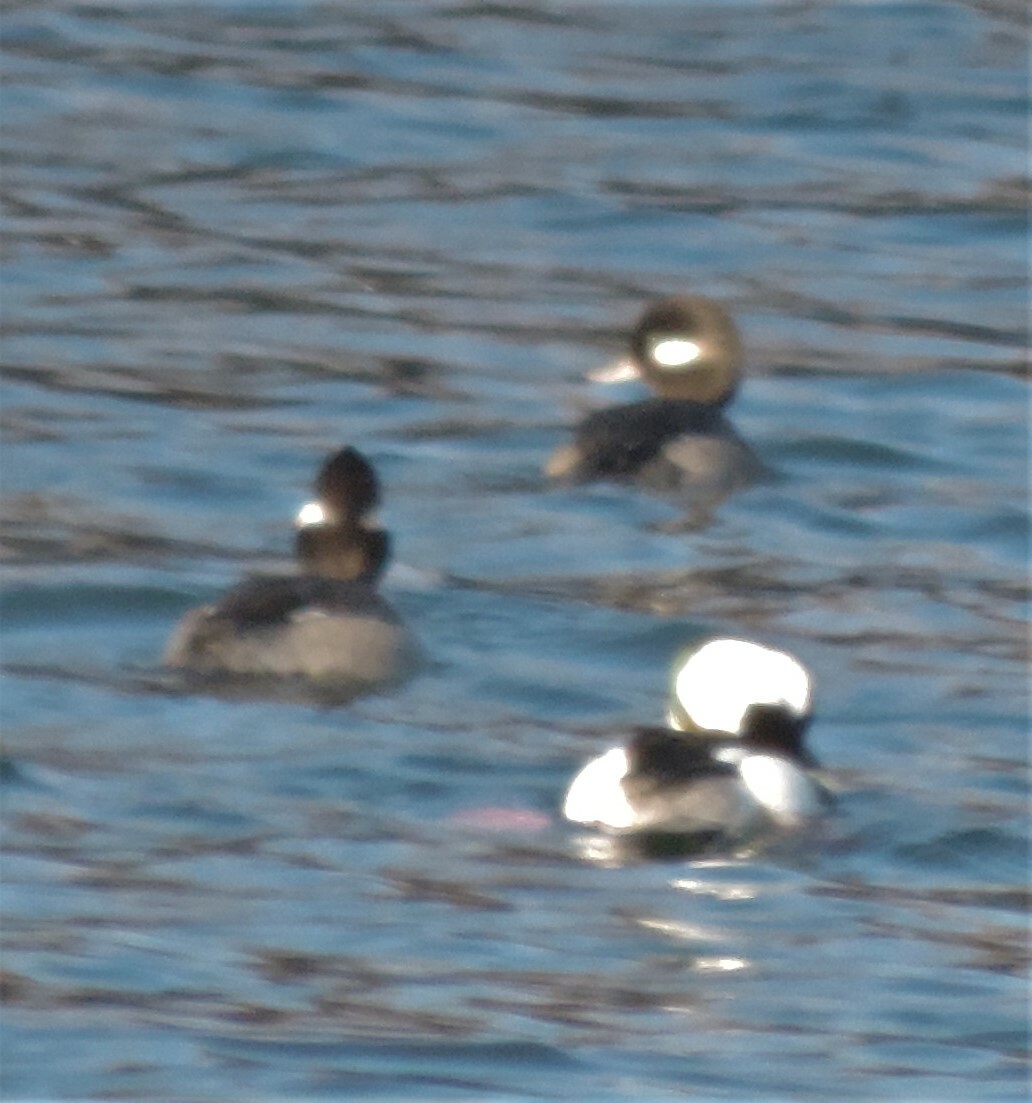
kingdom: Animalia
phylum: Chordata
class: Aves
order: Anseriformes
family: Anatidae
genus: Bucephala
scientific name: Bucephala albeola
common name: Bufflehead
